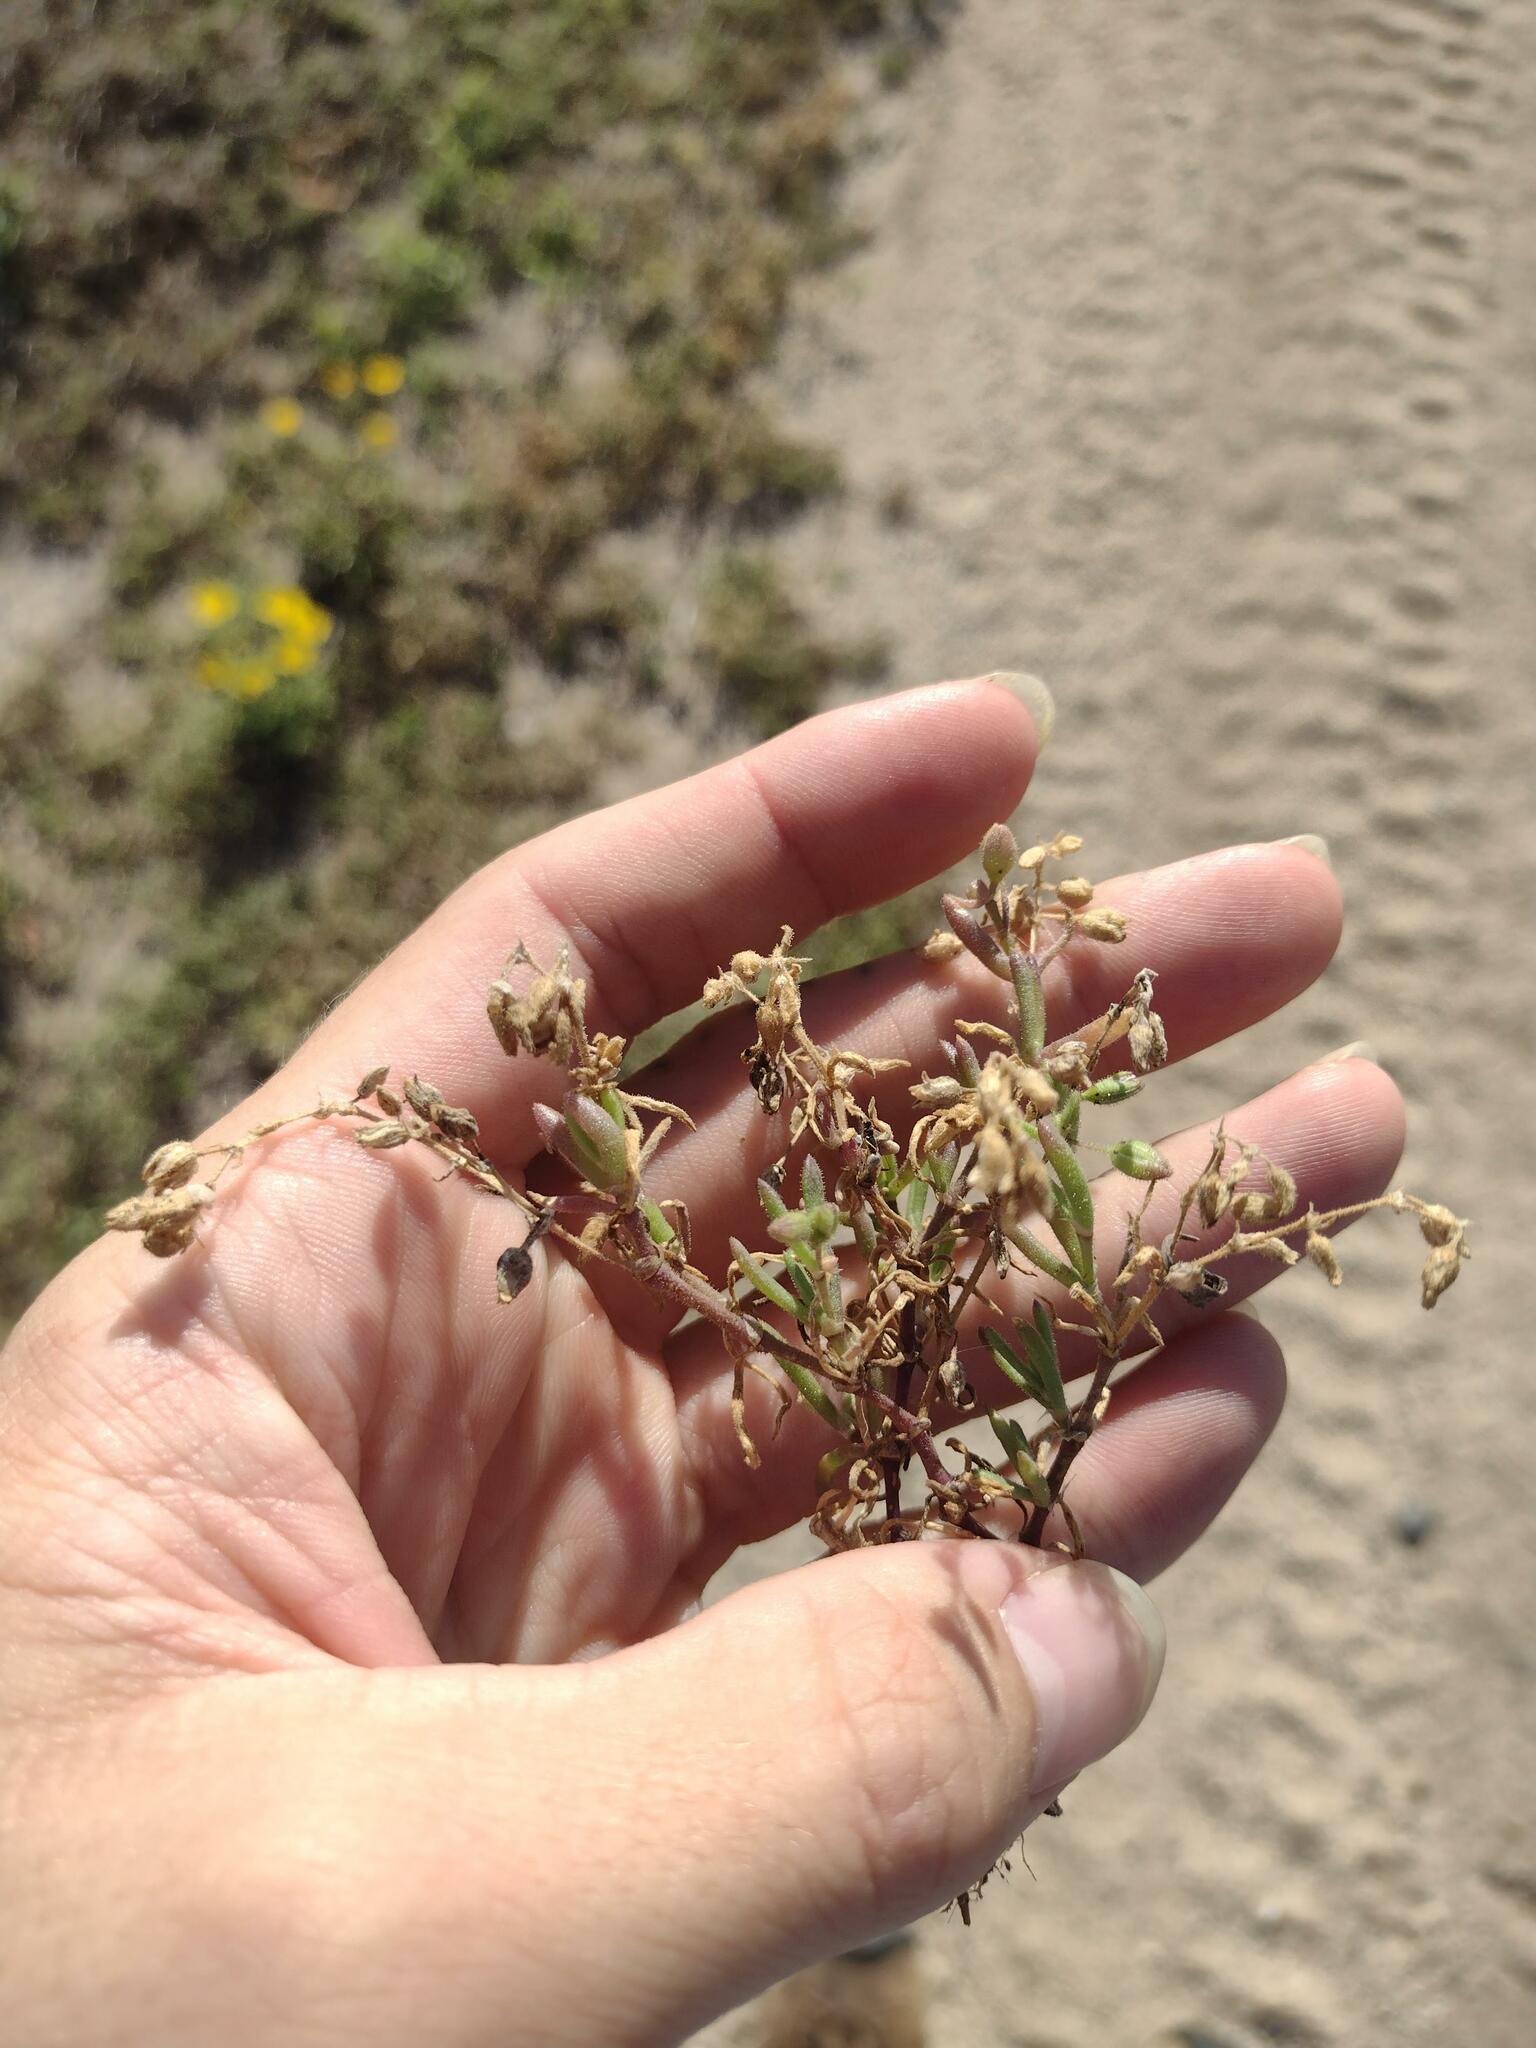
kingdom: Plantae
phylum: Tracheophyta
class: Magnoliopsida
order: Caryophyllales
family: Caryophyllaceae
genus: Spergularia
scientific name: Spergularia marina
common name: Lesser sea-spurrey
